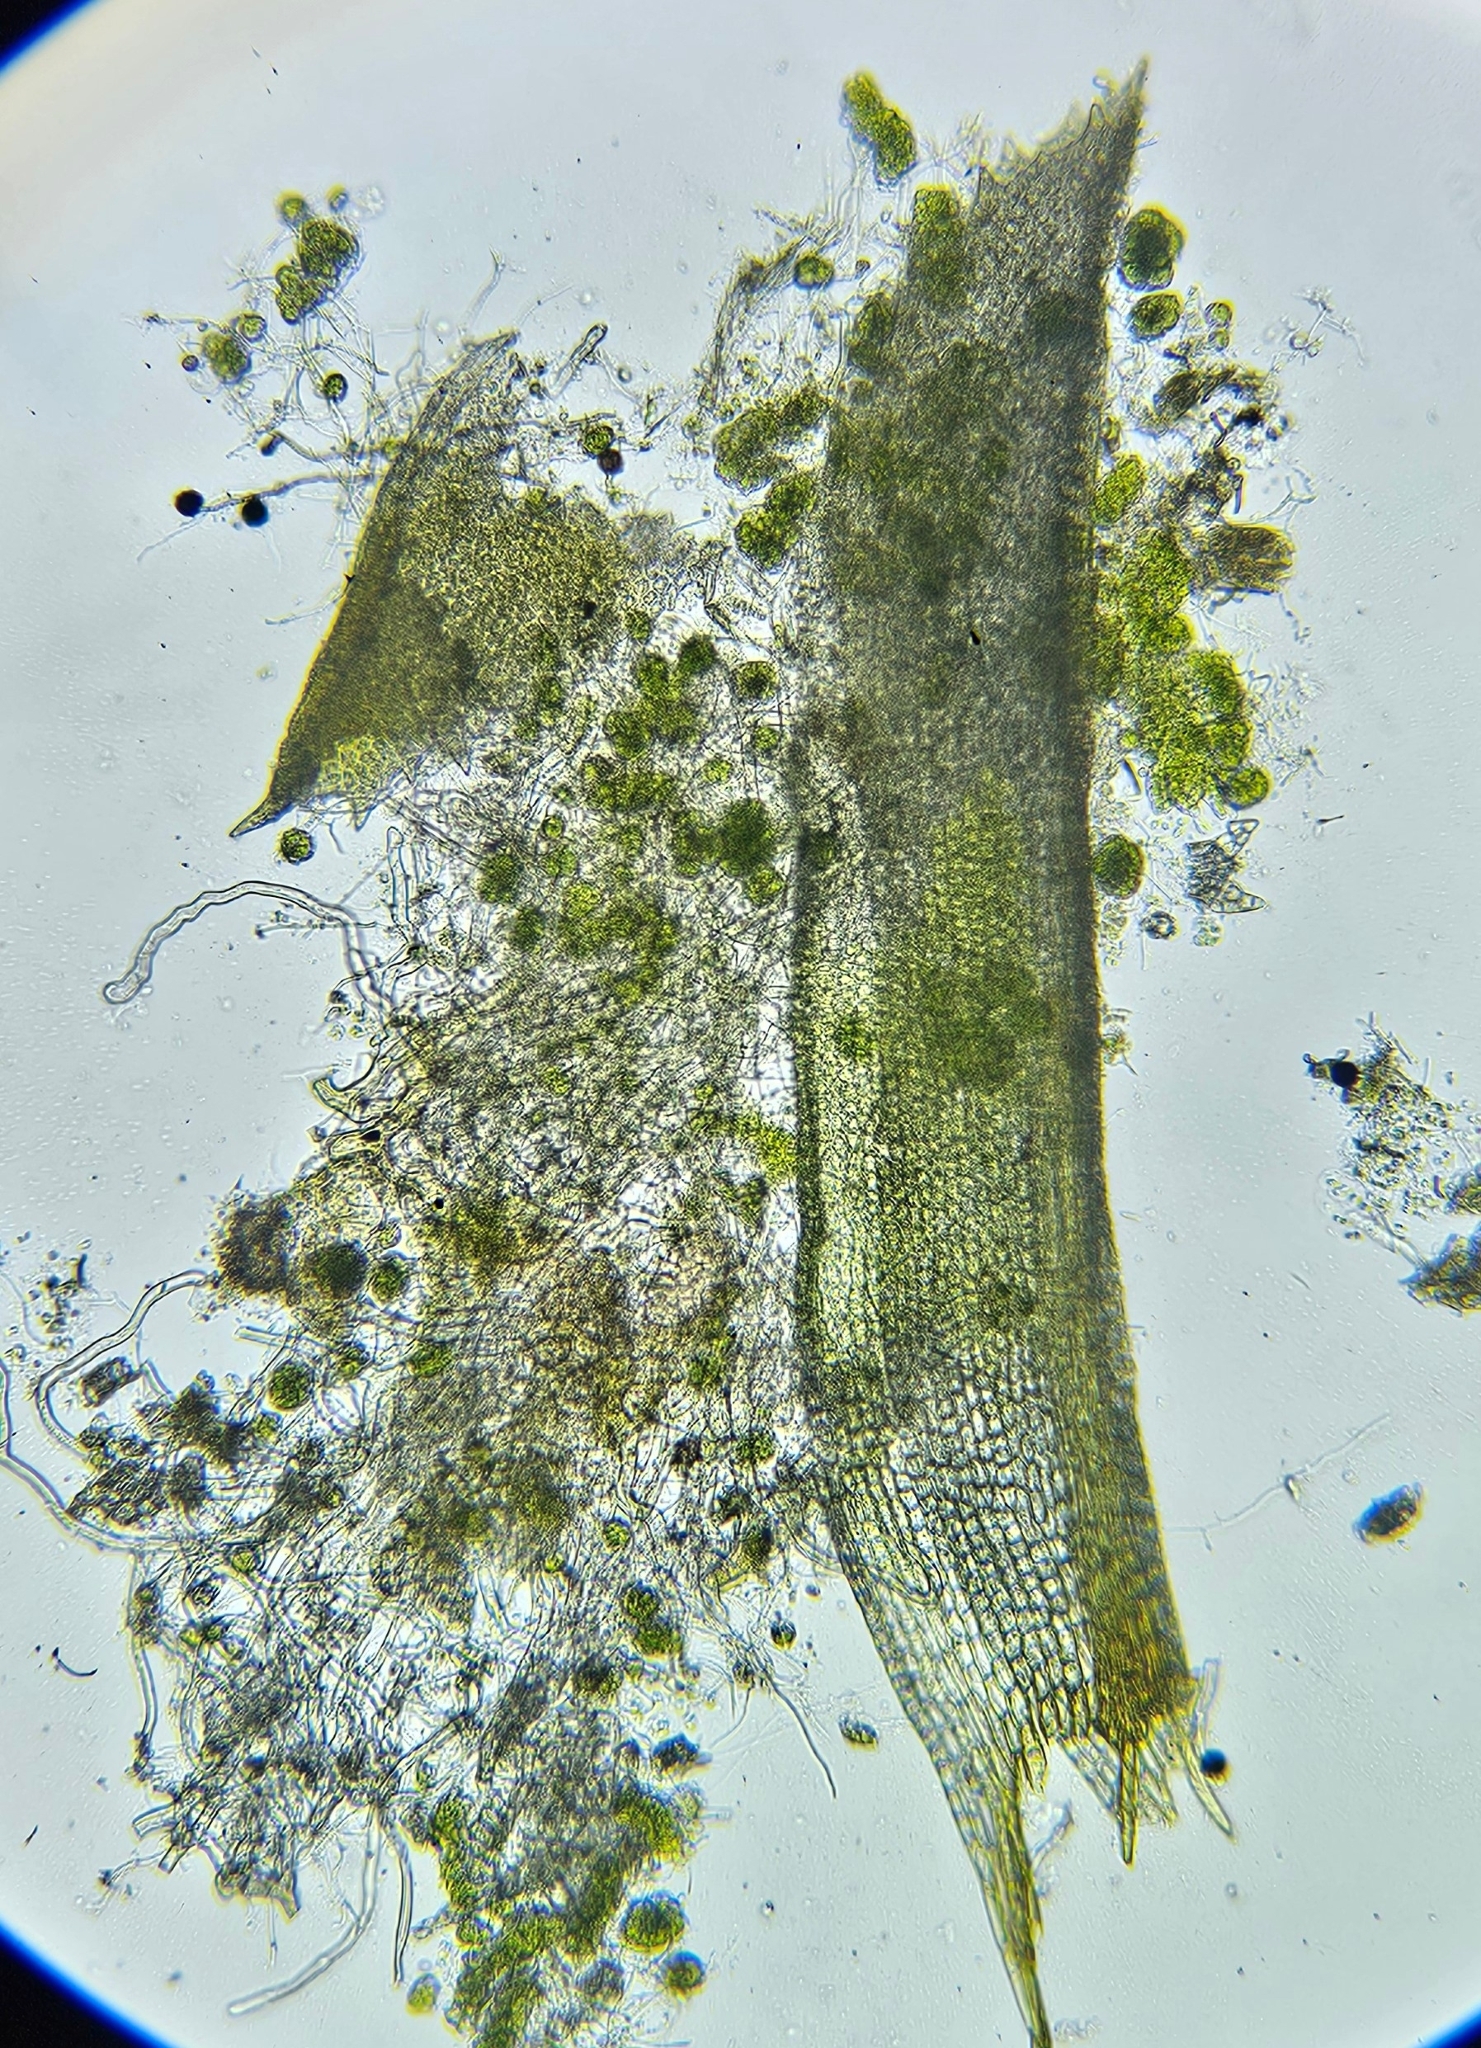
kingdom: Plantae
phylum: Bryophyta
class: Bryopsida
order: Pottiales
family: Pottiaceae
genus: Leptodontium
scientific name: Leptodontium flexifolium
